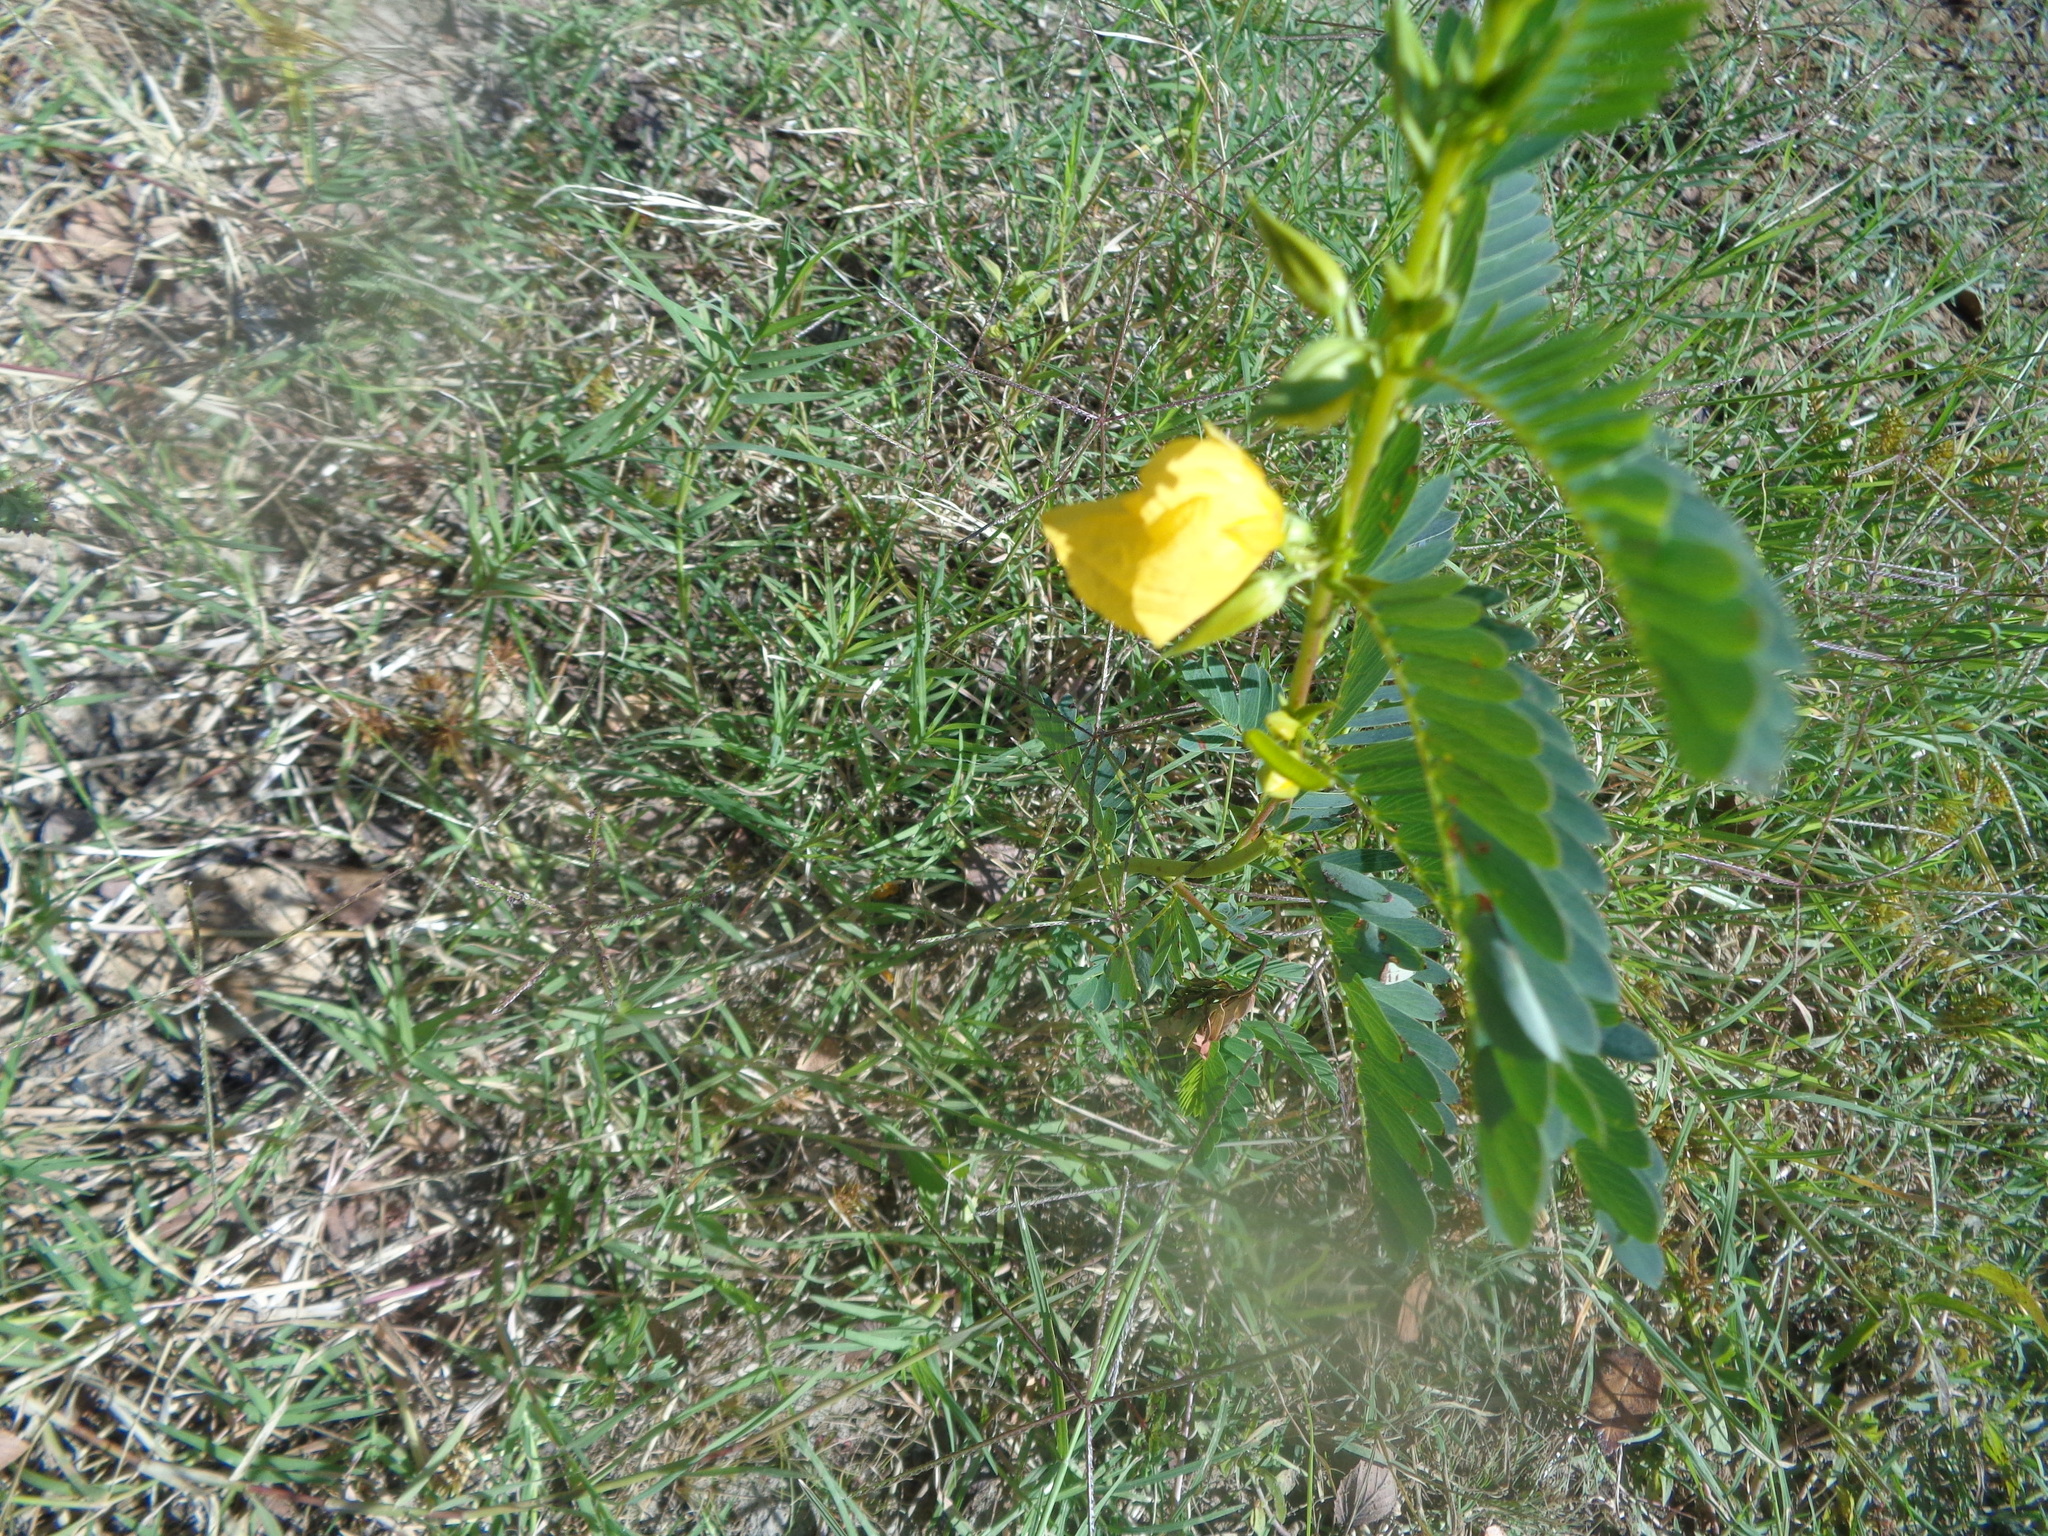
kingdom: Plantae
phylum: Tracheophyta
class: Magnoliopsida
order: Fabales
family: Fabaceae
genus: Chamaecrista
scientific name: Chamaecrista fasciculata
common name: Golden cassia
